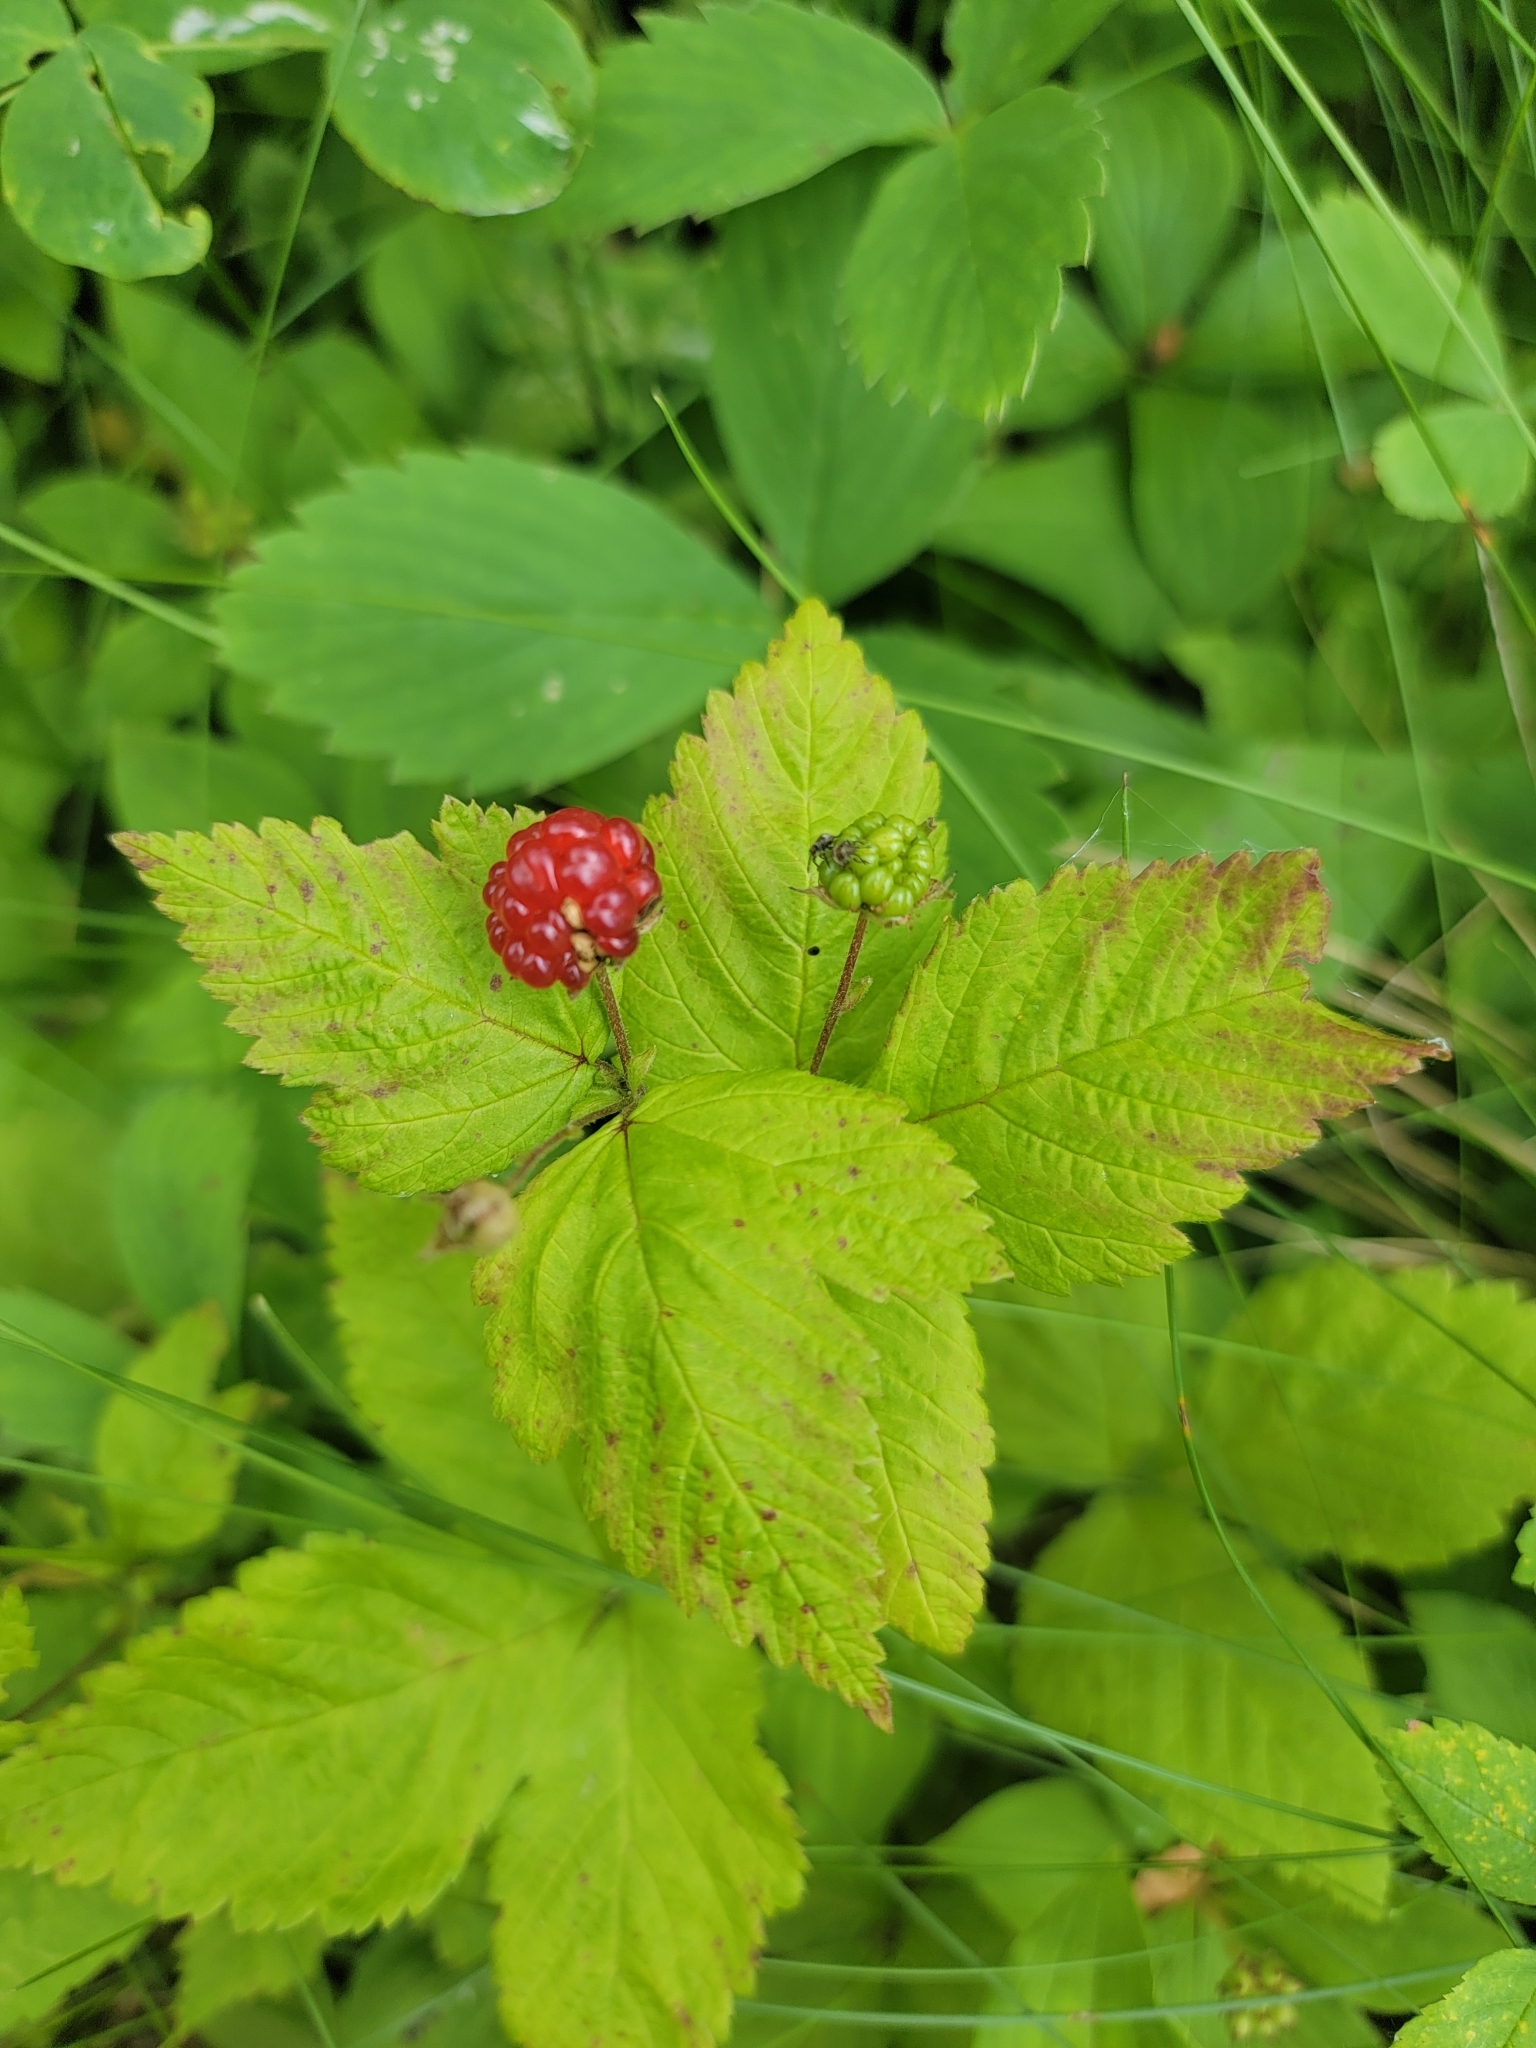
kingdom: Plantae
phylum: Tracheophyta
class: Magnoliopsida
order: Rosales
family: Rosaceae
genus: Rubus
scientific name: Rubus pubescens
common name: Dwarf raspberry
